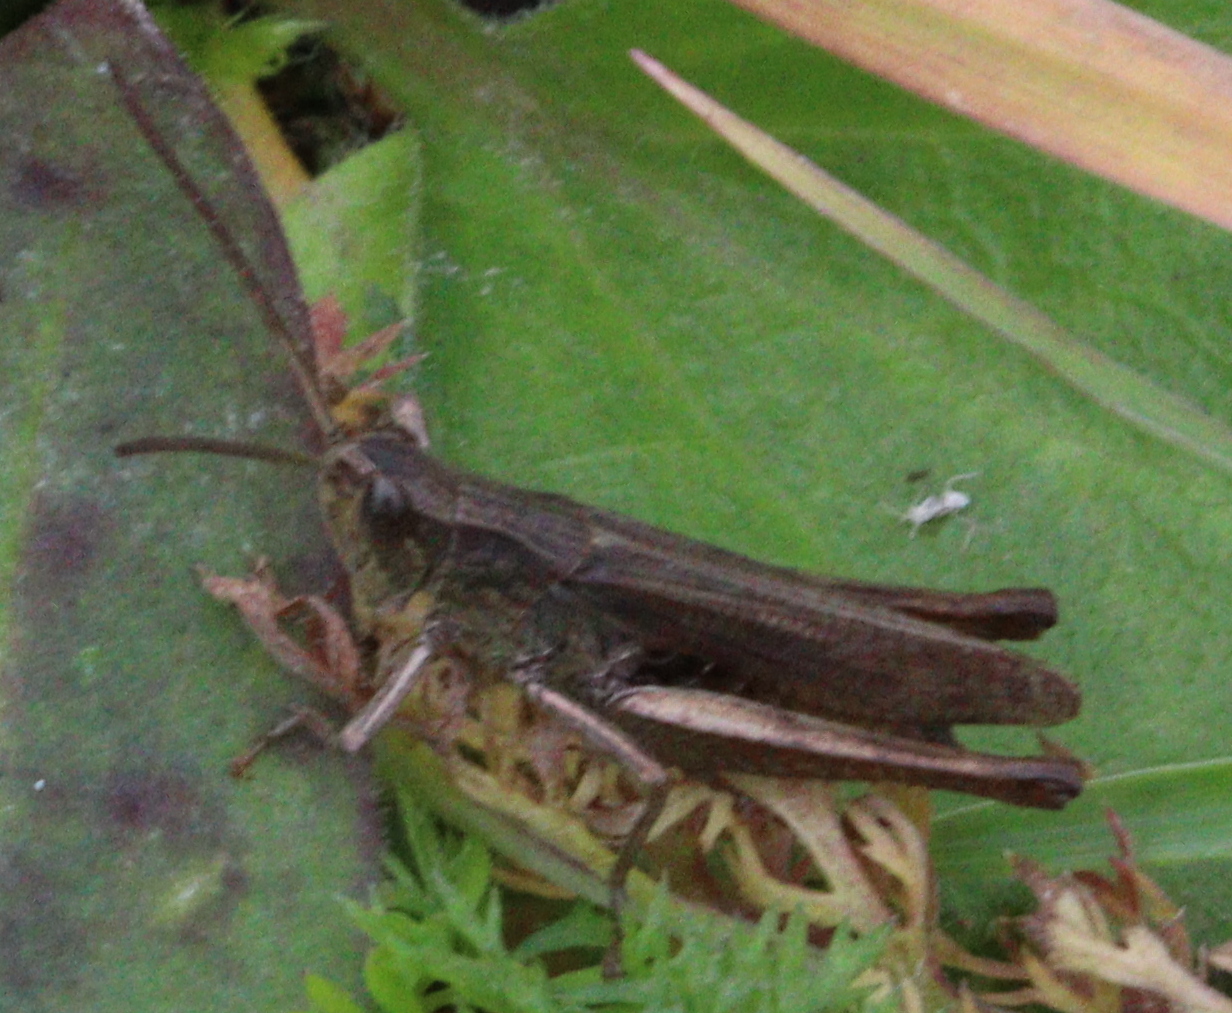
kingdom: Animalia
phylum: Arthropoda
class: Insecta
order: Orthoptera
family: Acrididae
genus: Chorthippus
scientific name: Chorthippus dorsatus
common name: Steppe grasshopper
